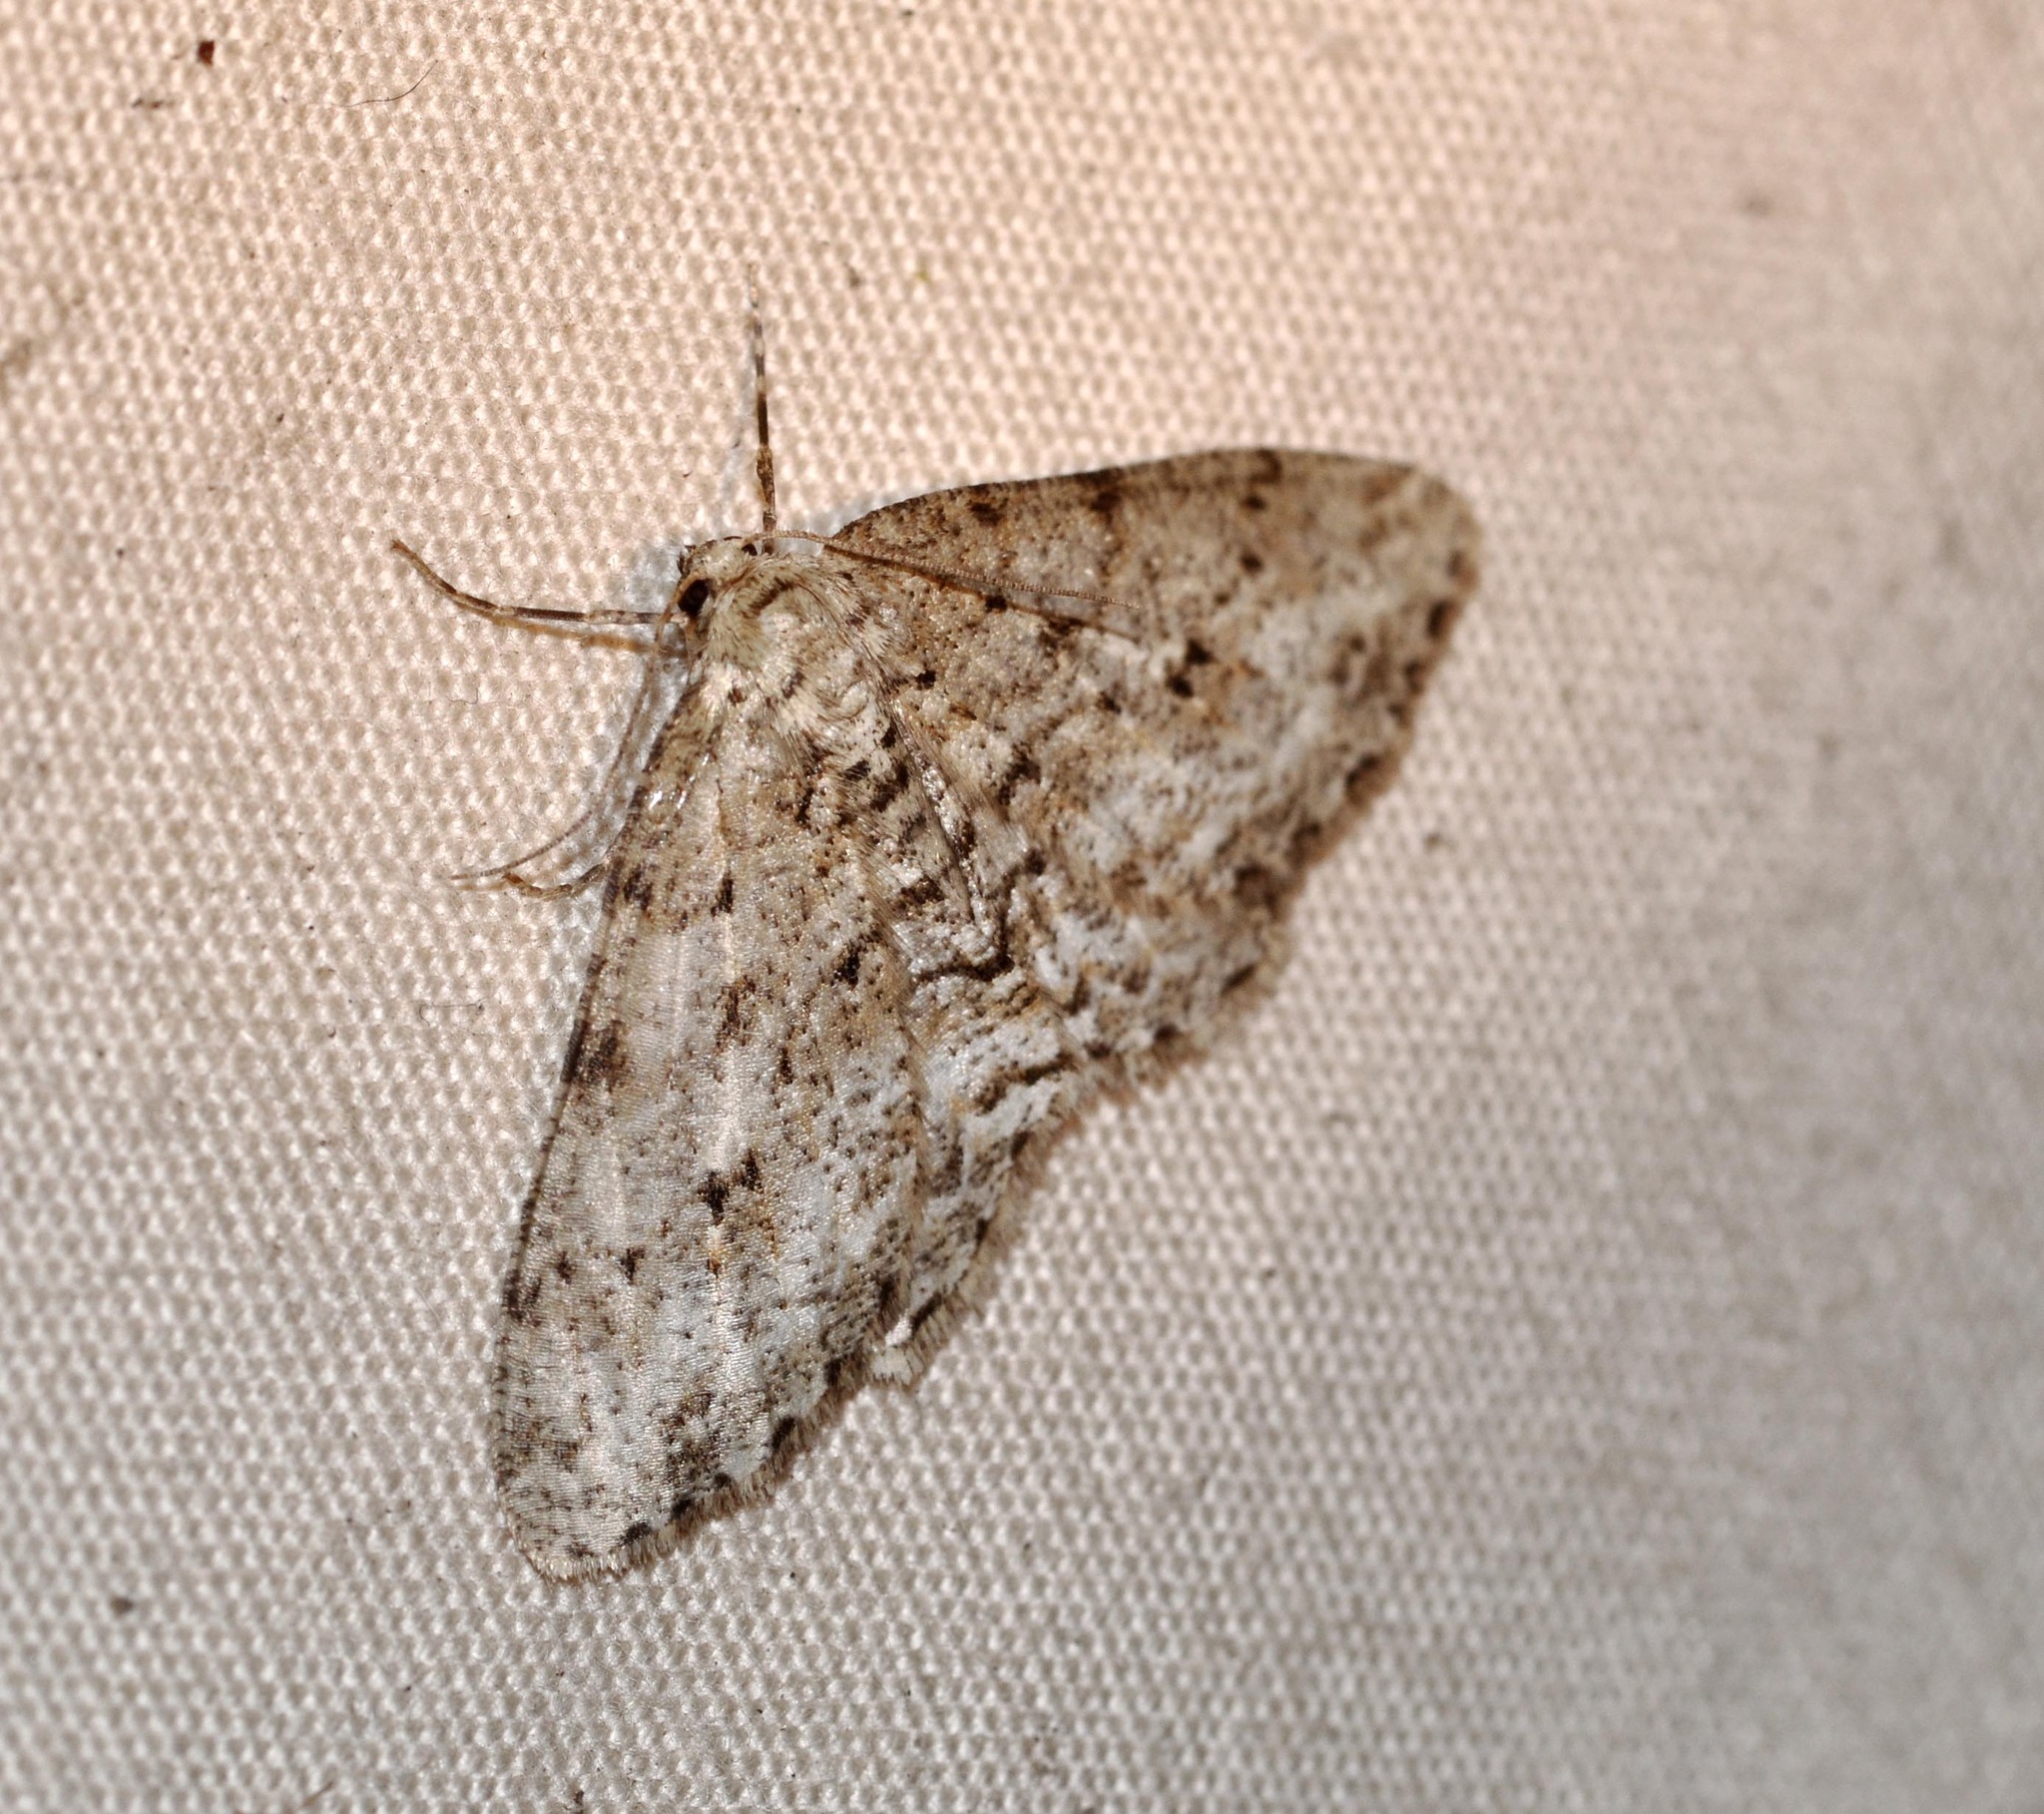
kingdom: Animalia
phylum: Arthropoda
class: Insecta
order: Lepidoptera
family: Geometridae
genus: Ectropis
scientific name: Ectropis crepuscularia
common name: Engrailed
